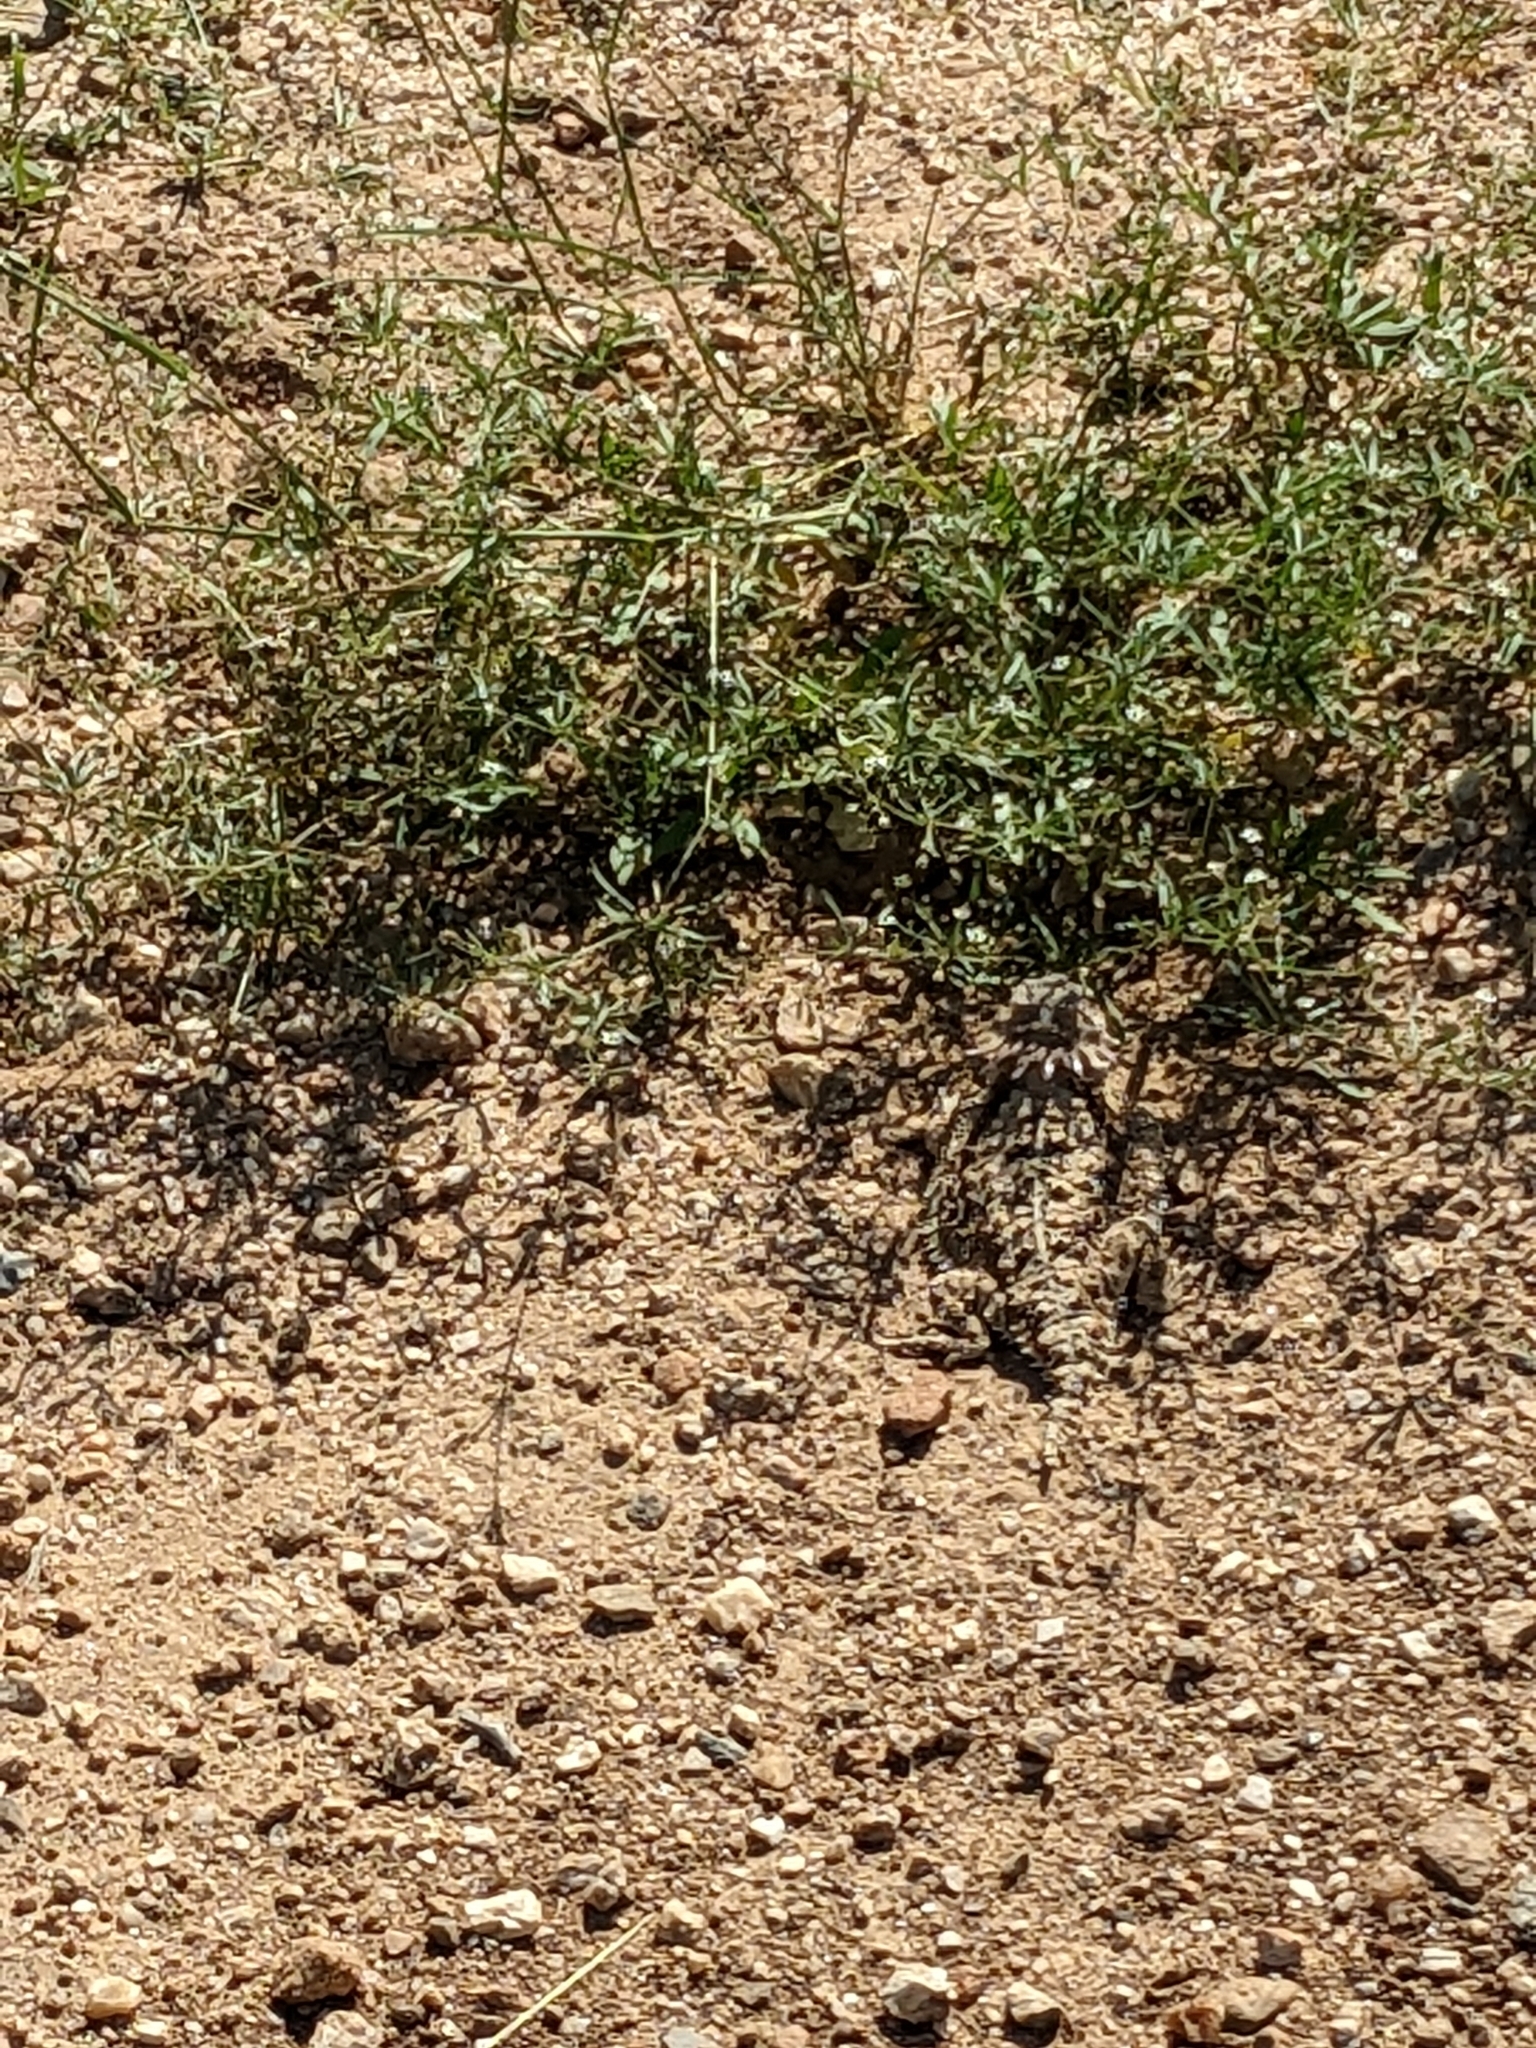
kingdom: Animalia
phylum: Chordata
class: Squamata
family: Phrynosomatidae
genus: Phrynosoma
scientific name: Phrynosoma solare
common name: Regal horned lizard
